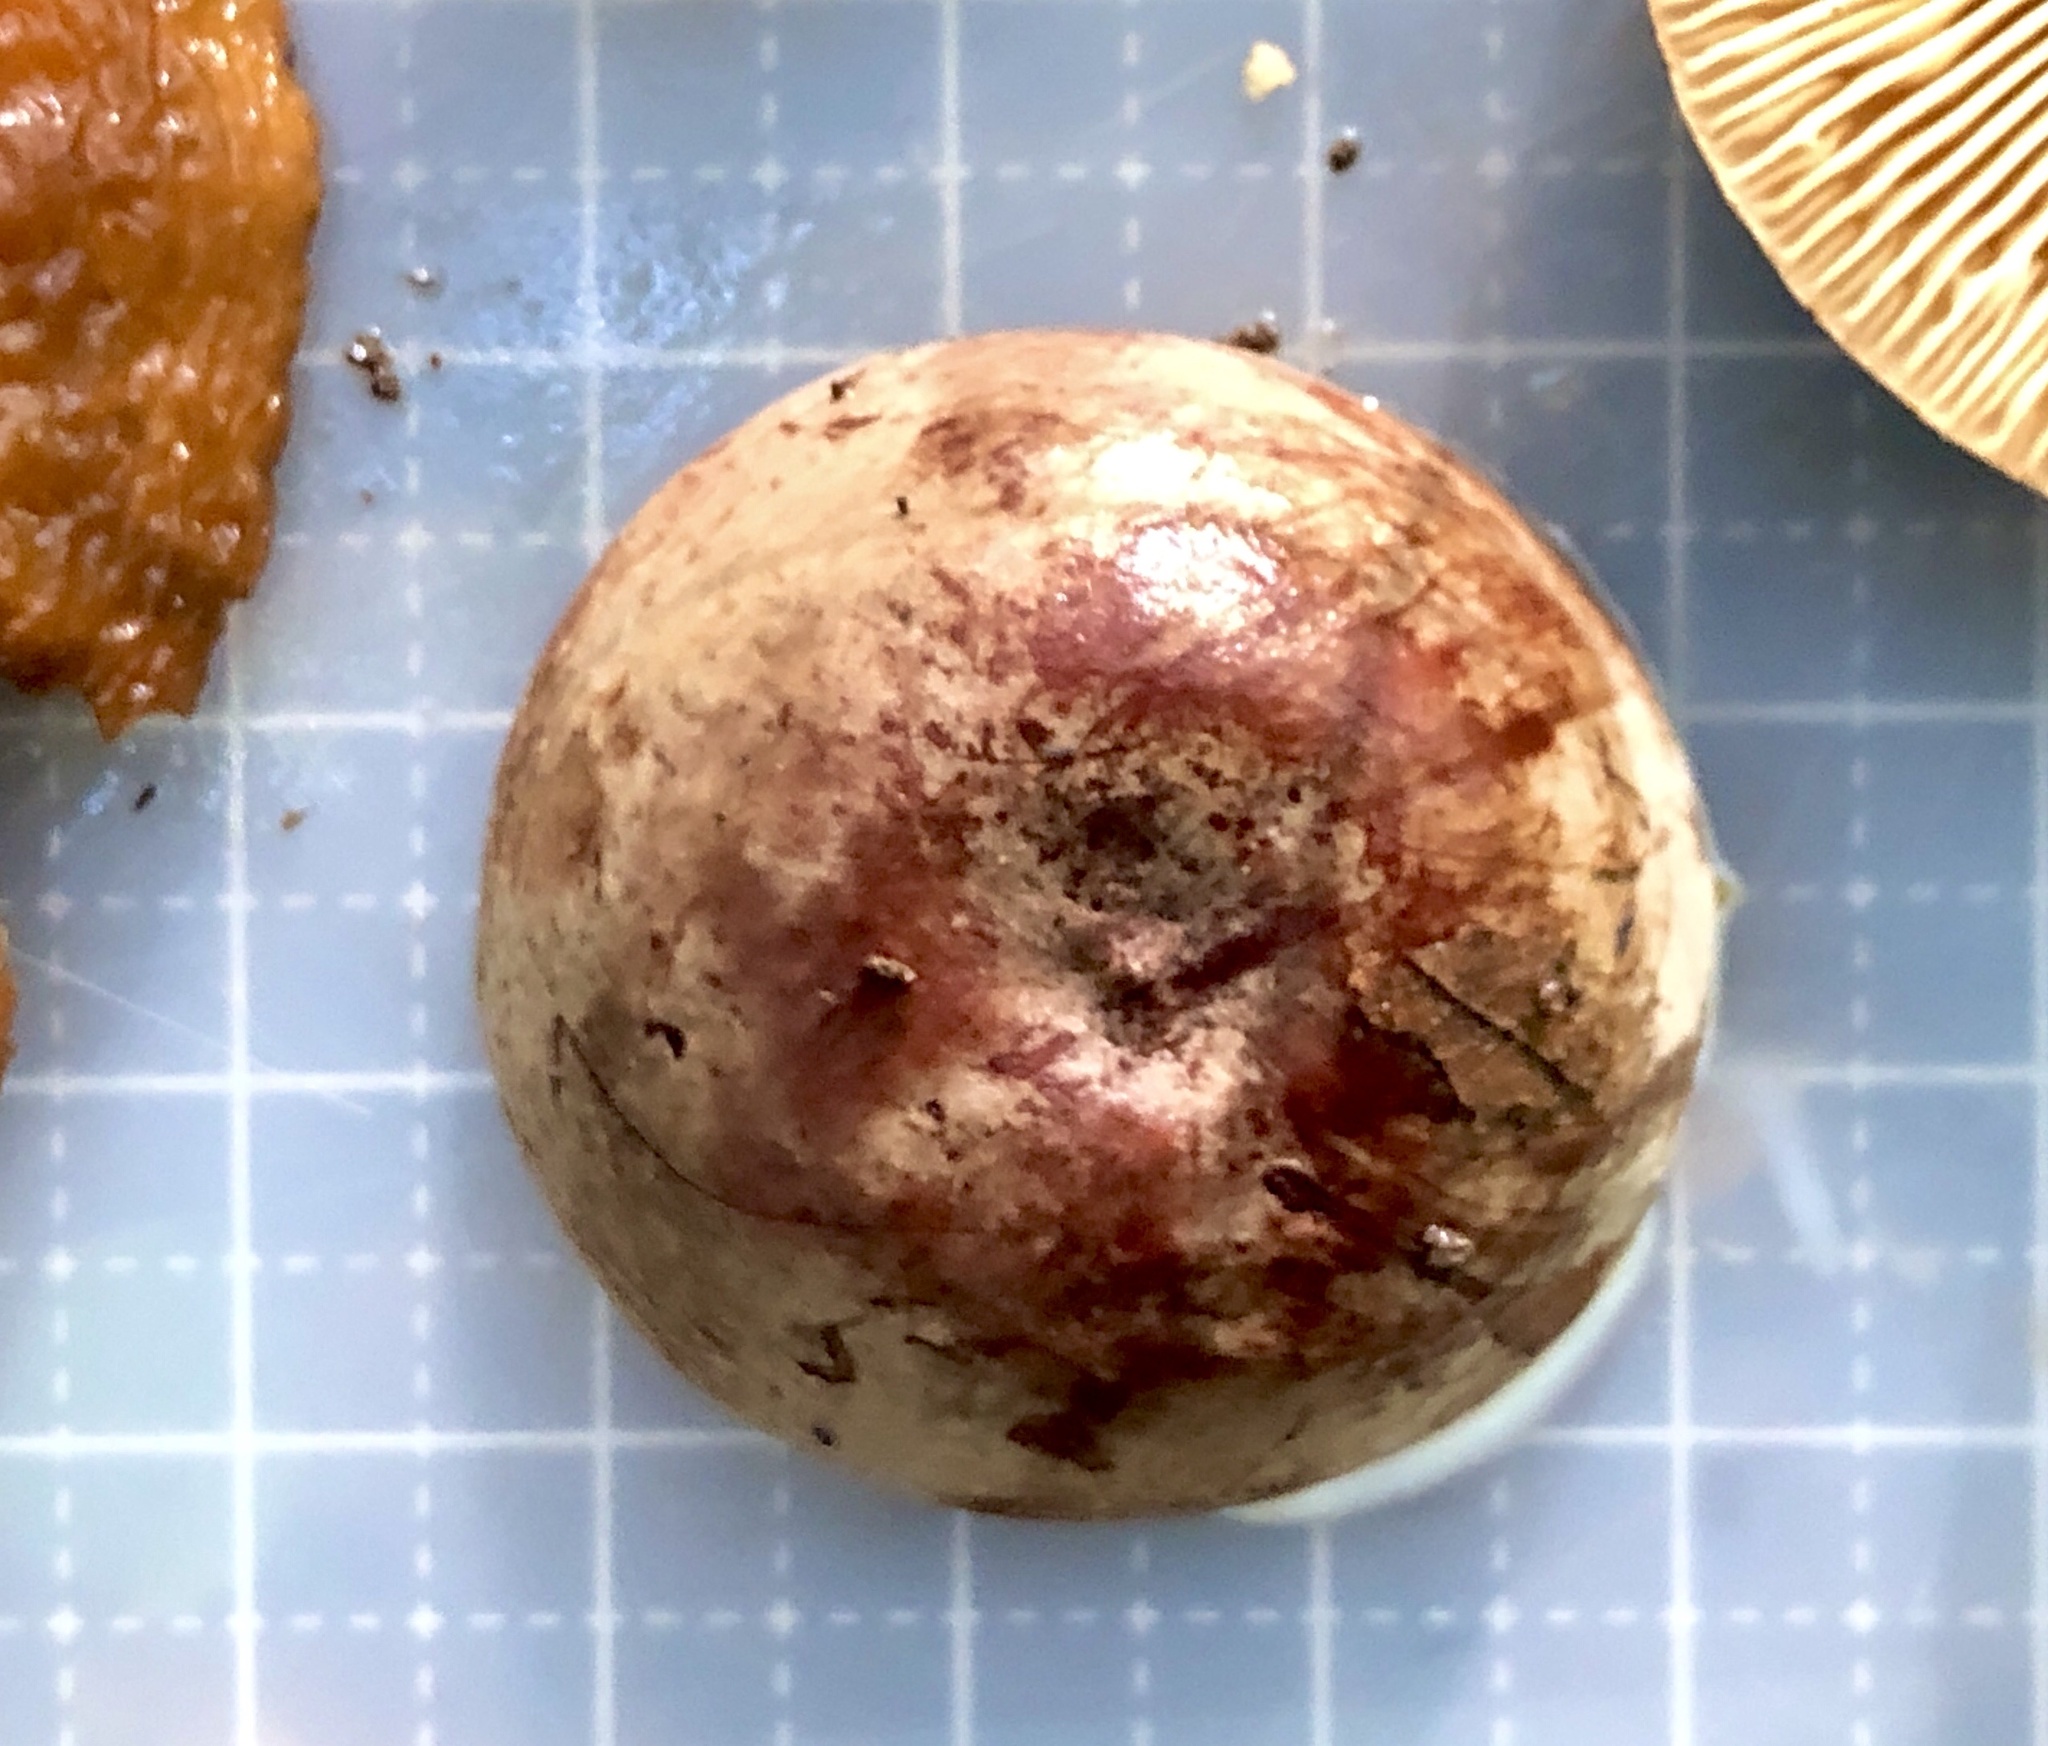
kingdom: Fungi
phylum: Basidiomycota
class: Agaricomycetes
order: Russulales
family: Russulaceae
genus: Lactarius
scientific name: Lactarius corrugis
